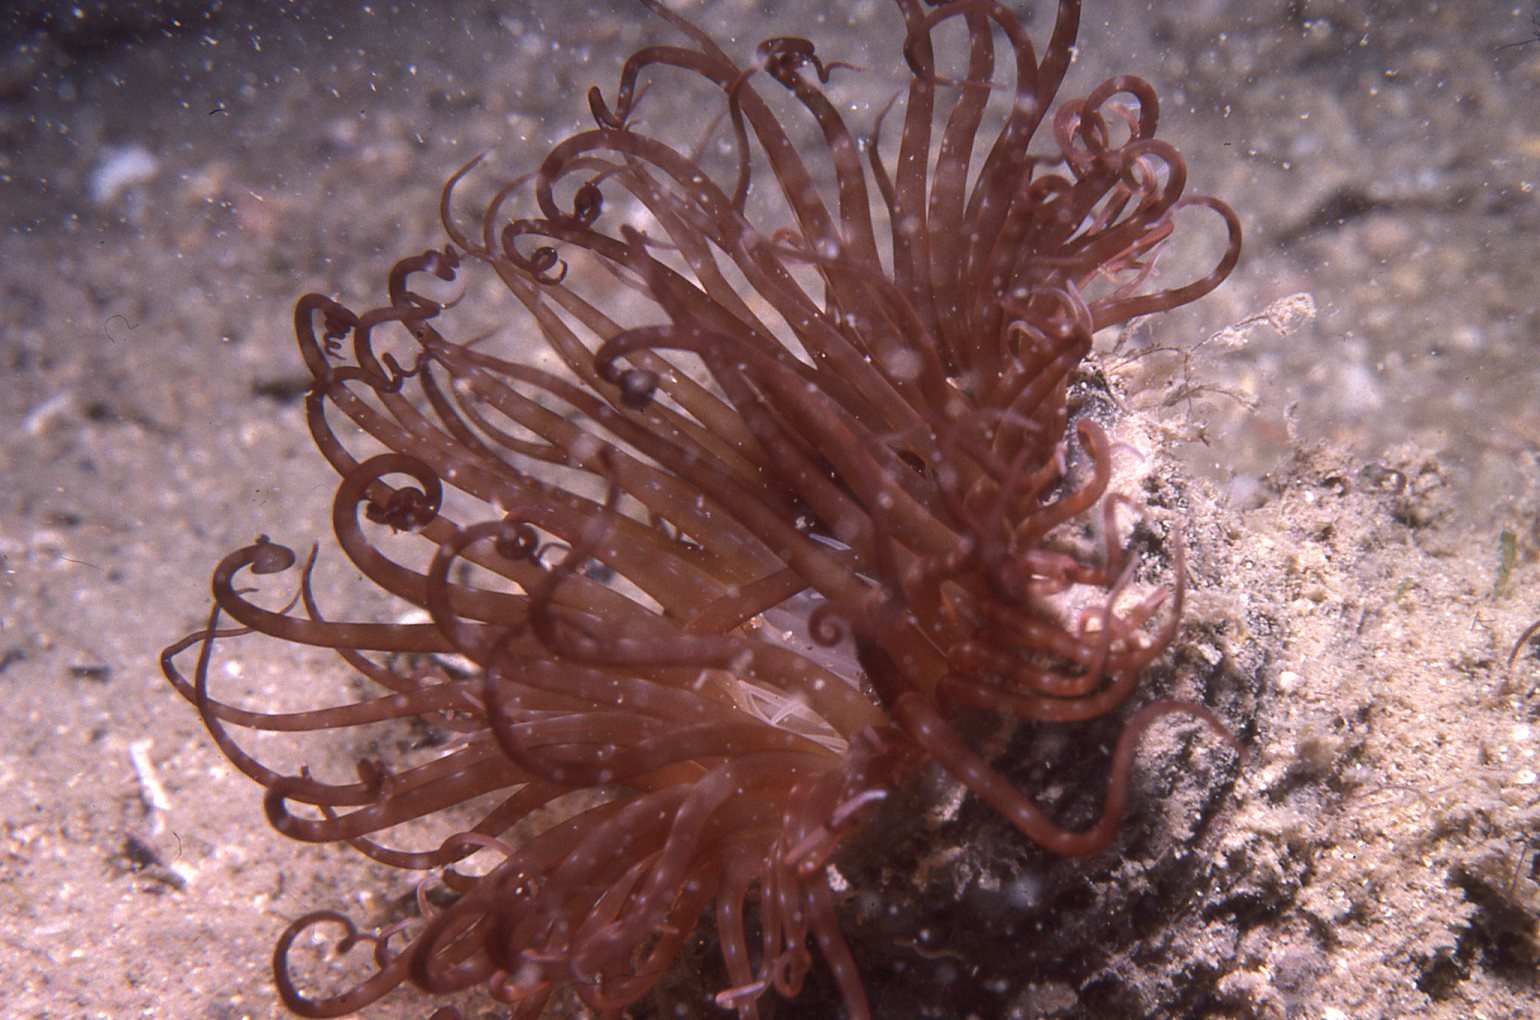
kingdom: Animalia
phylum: Cnidaria
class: Anthozoa
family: Cerianthidae
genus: Pachycerianthus
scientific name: Pachycerianthus delwynae
